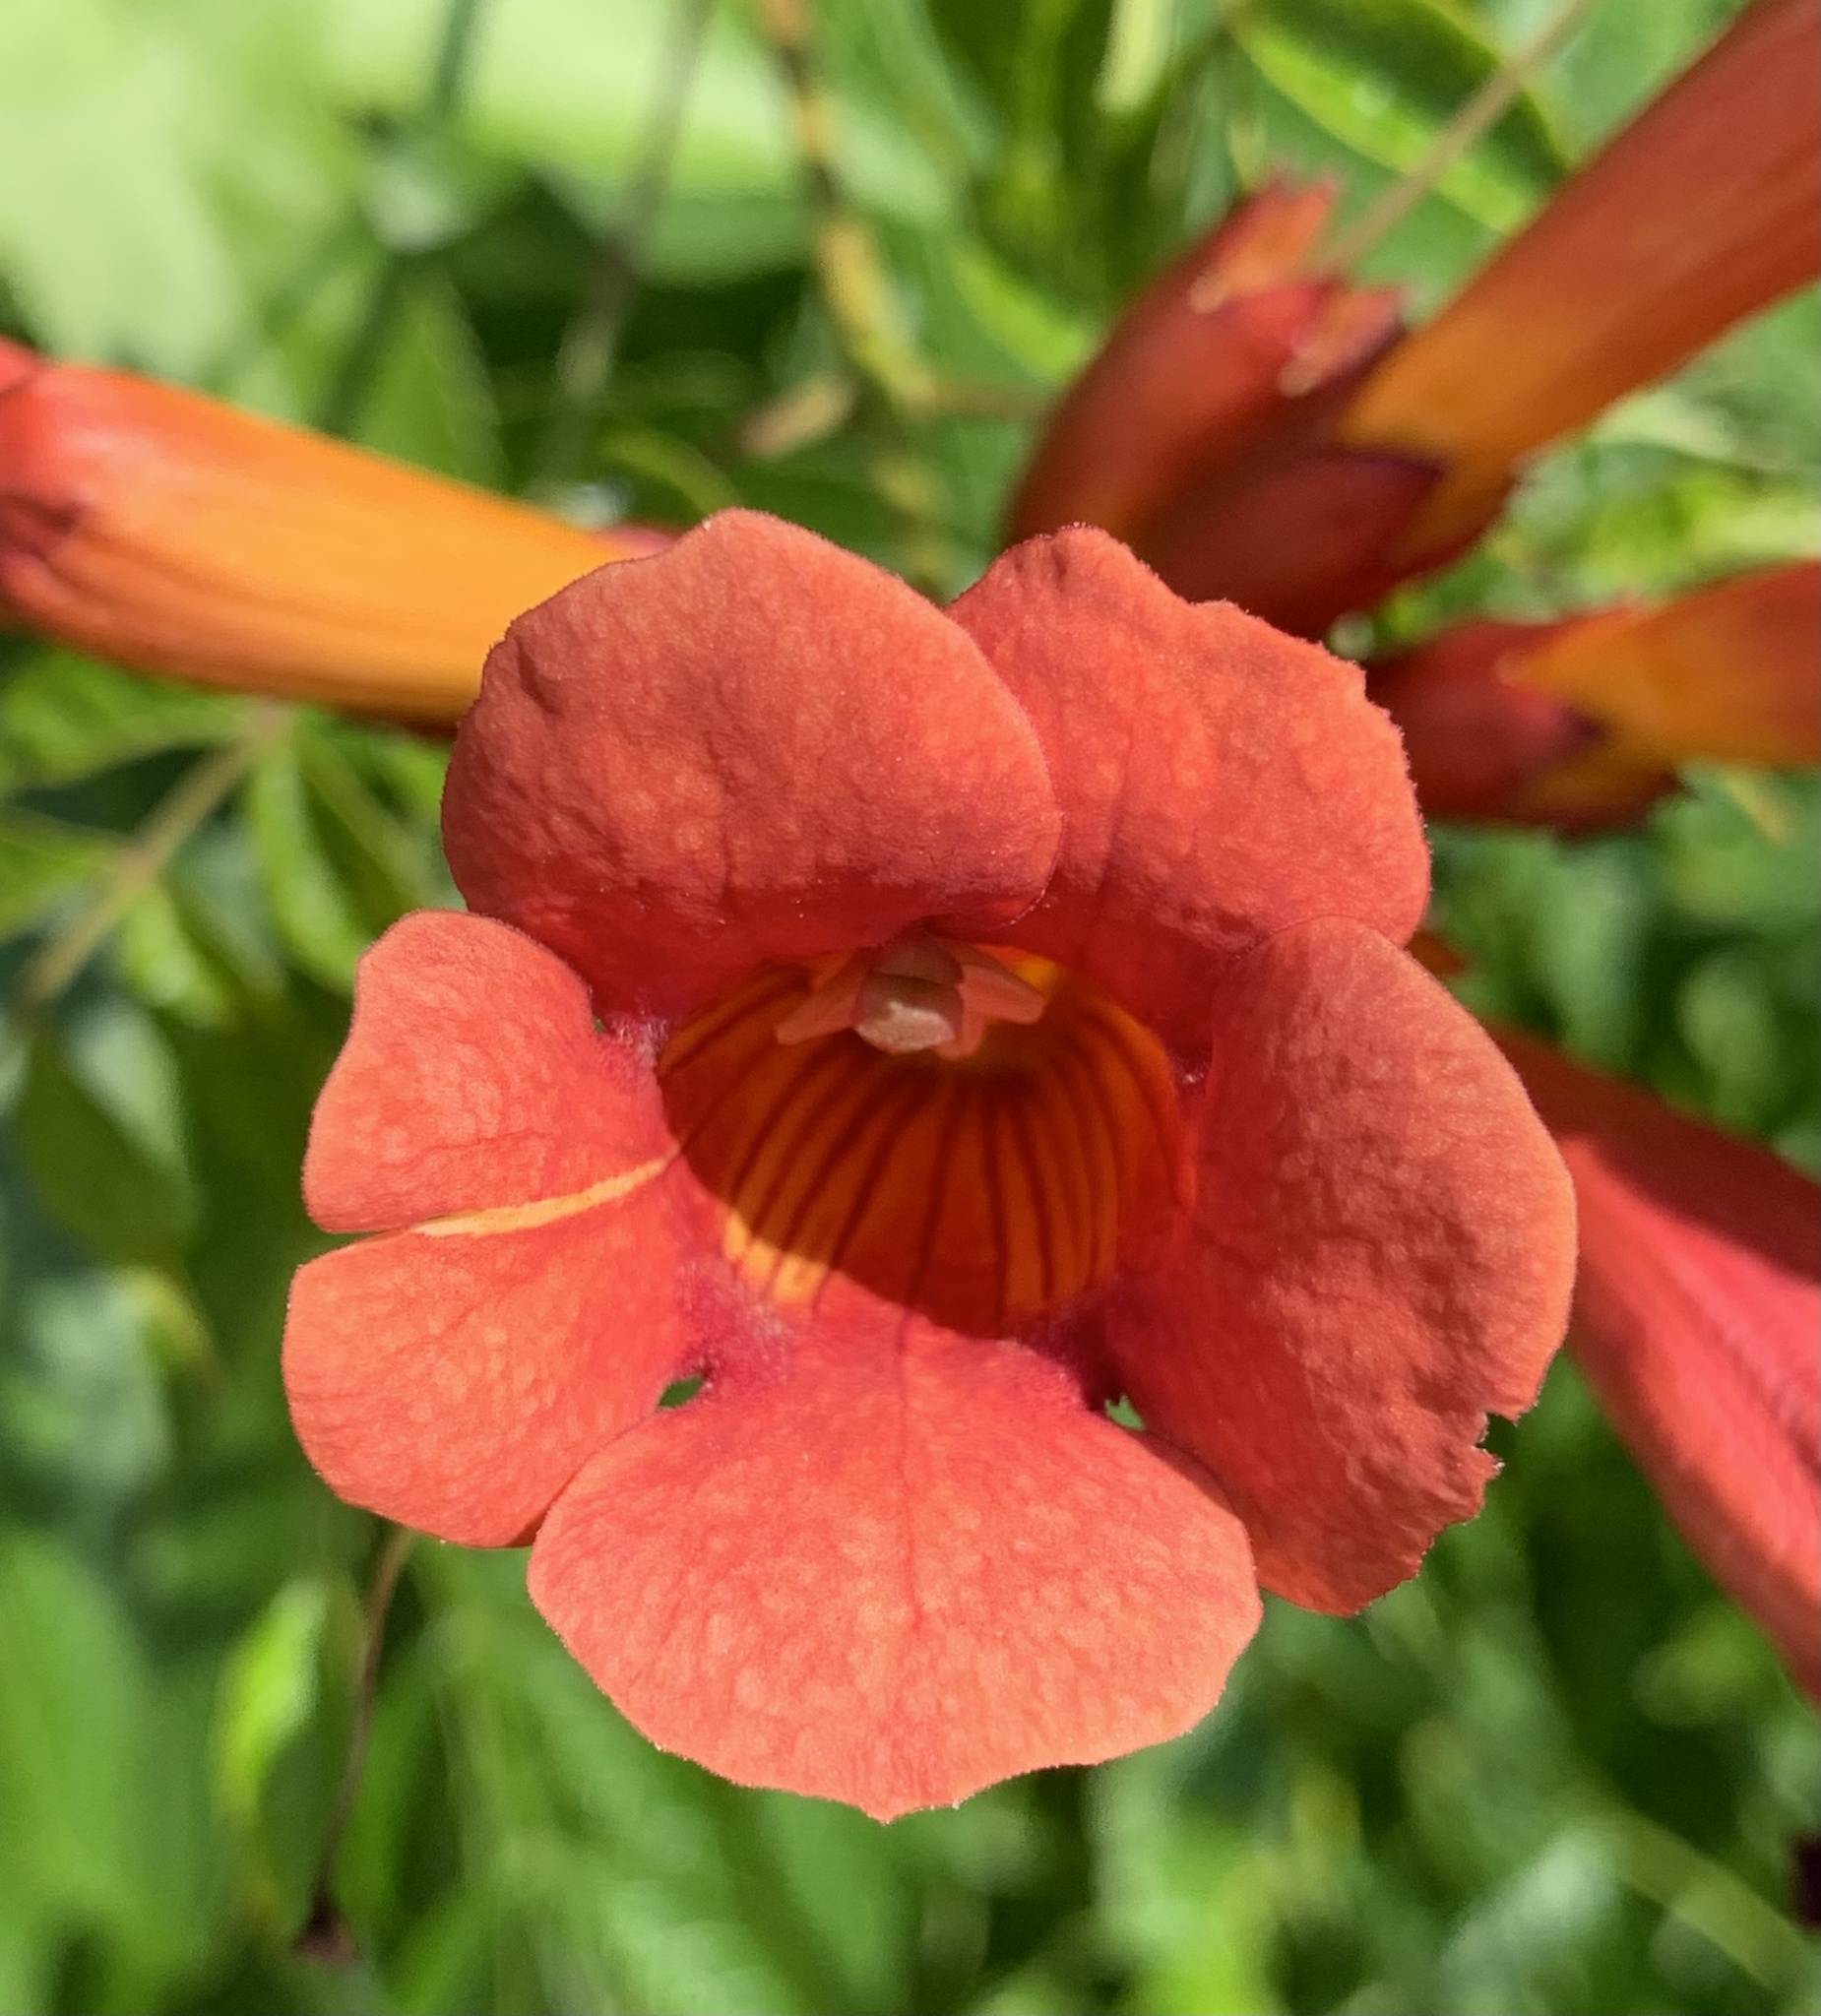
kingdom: Plantae
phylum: Tracheophyta
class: Magnoliopsida
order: Lamiales
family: Bignoniaceae
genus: Campsis
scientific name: Campsis radicans
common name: Trumpet-creeper
